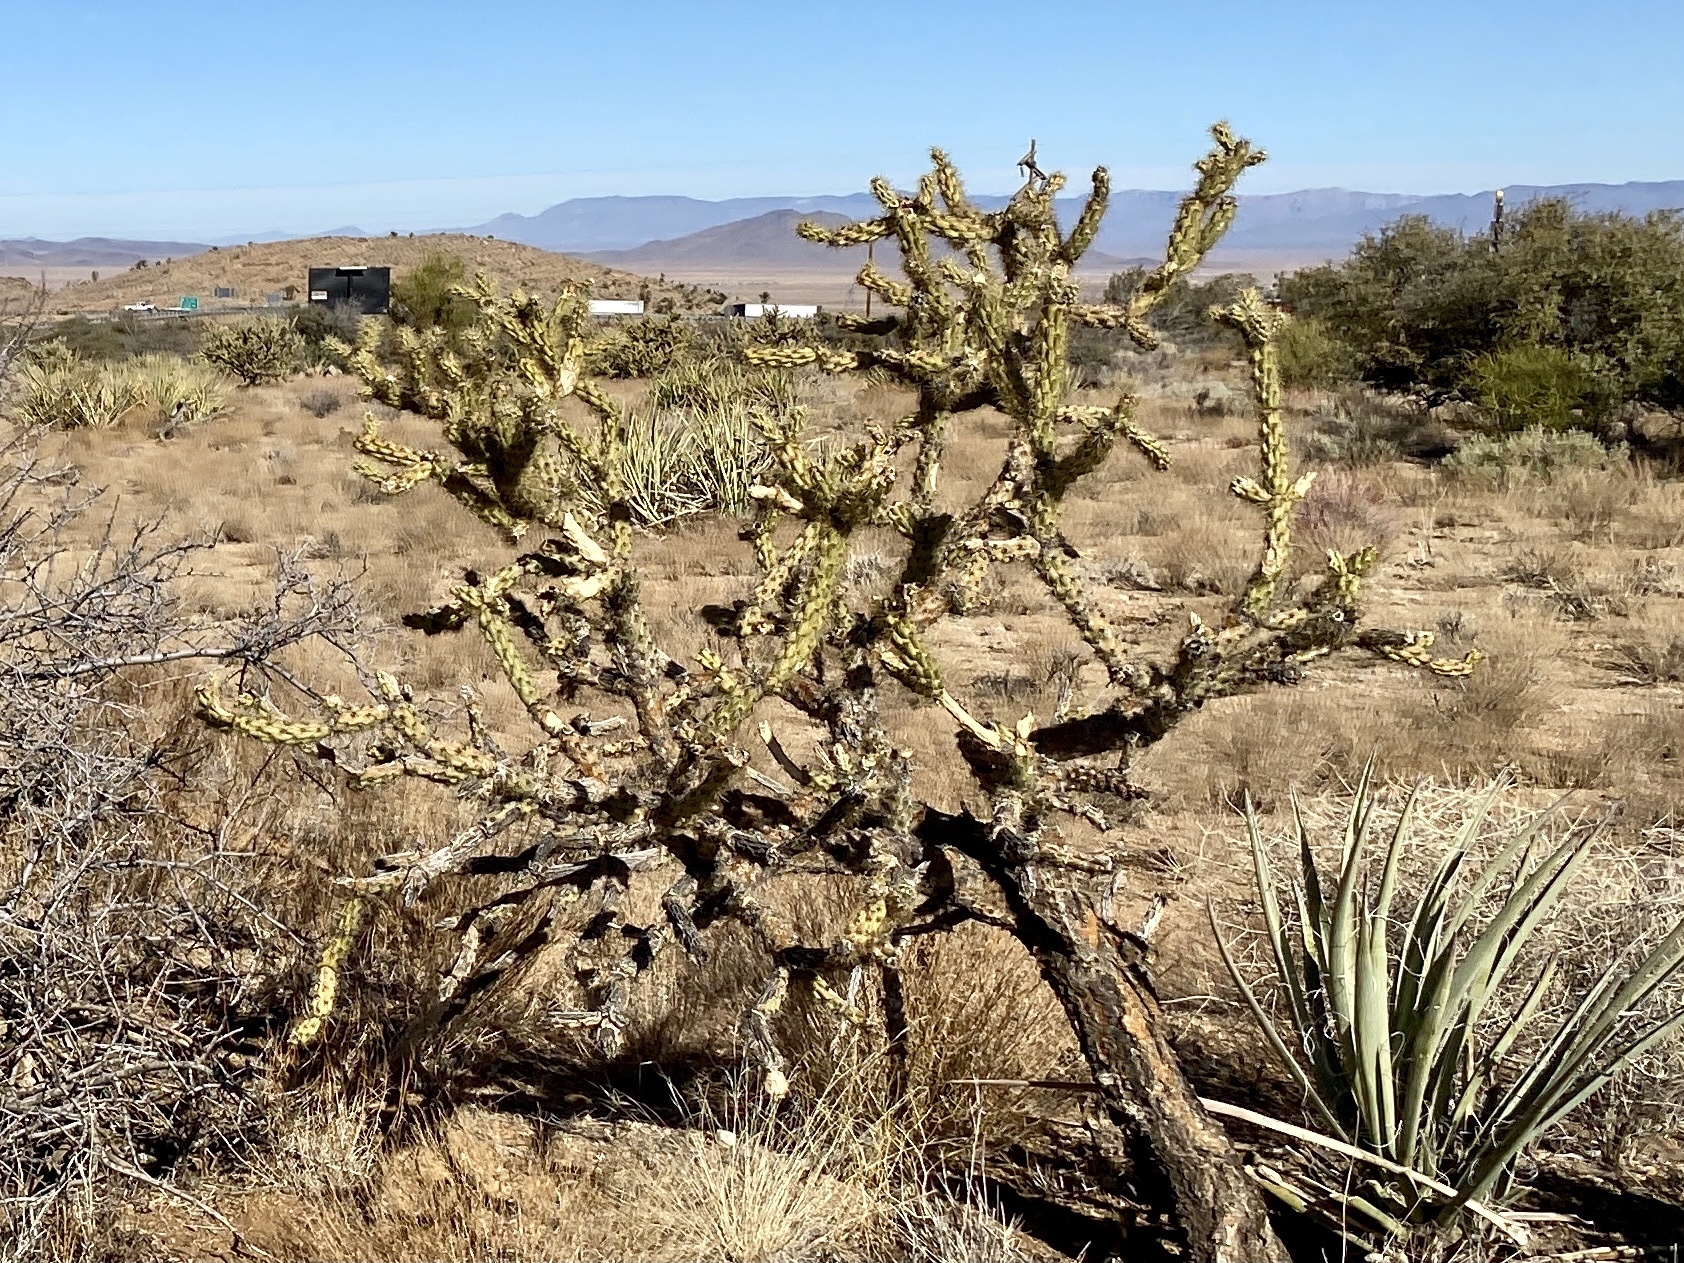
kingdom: Plantae
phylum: Tracheophyta
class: Magnoliopsida
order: Caryophyllales
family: Cactaceae
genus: Cylindropuntia
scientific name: Cylindropuntia acanthocarpa
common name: Buckhorn cholla
